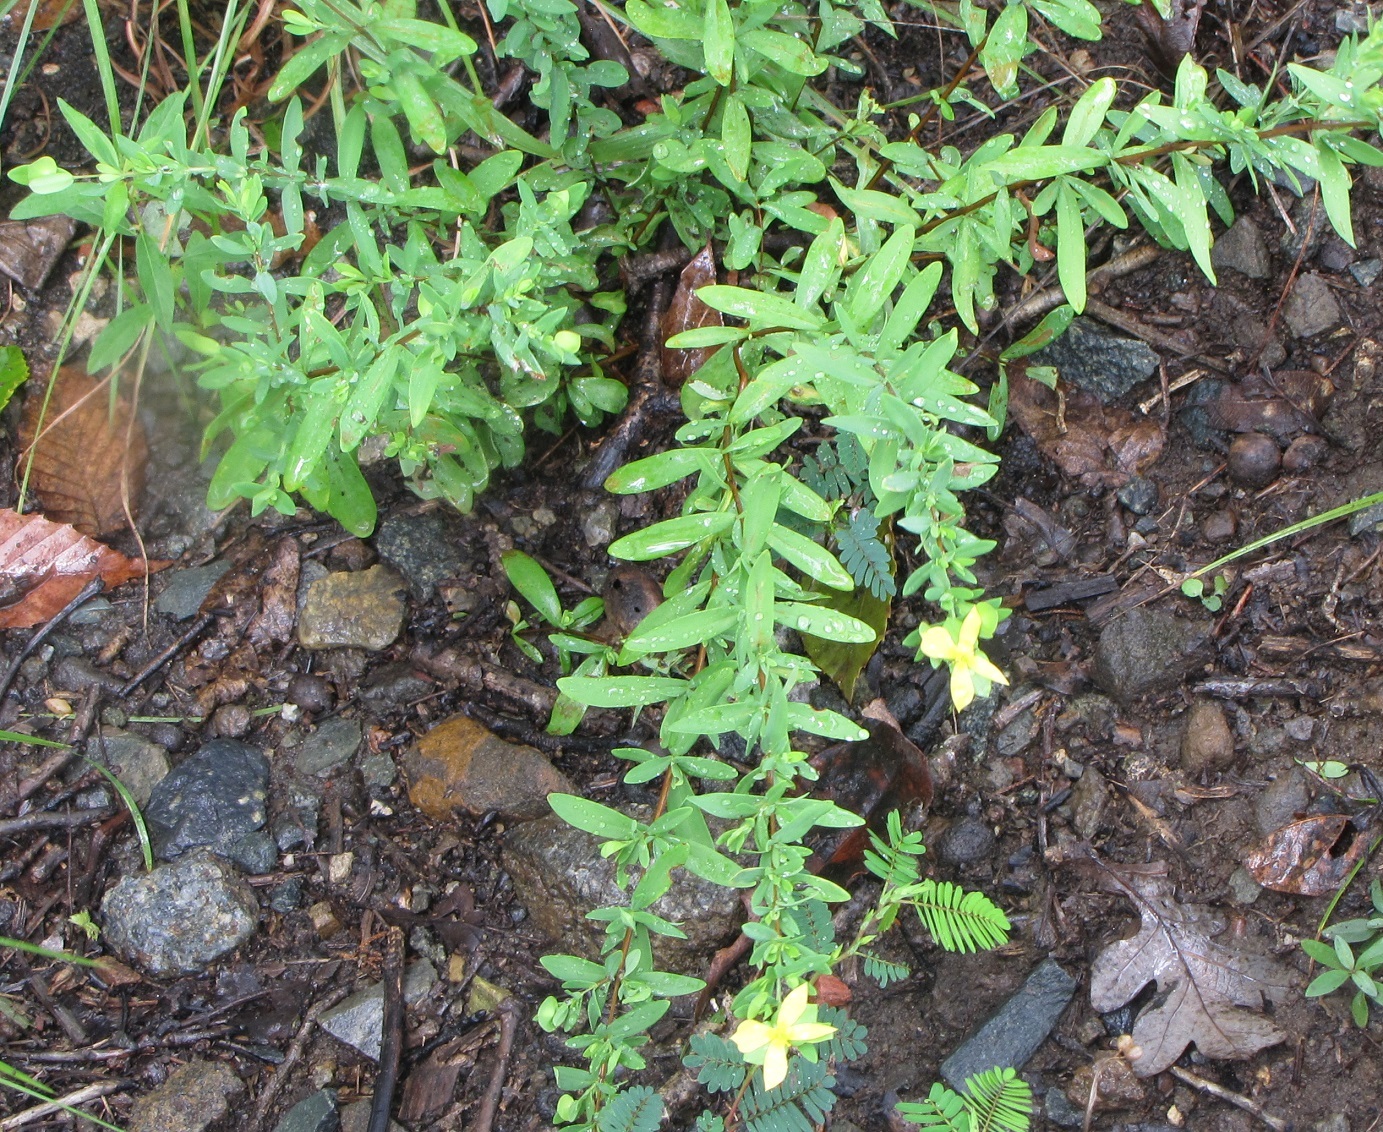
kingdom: Plantae
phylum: Tracheophyta
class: Magnoliopsida
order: Malpighiales
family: Hypericaceae
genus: Hypericum
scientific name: Hypericum hypericoides
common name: St. andrew's cross
